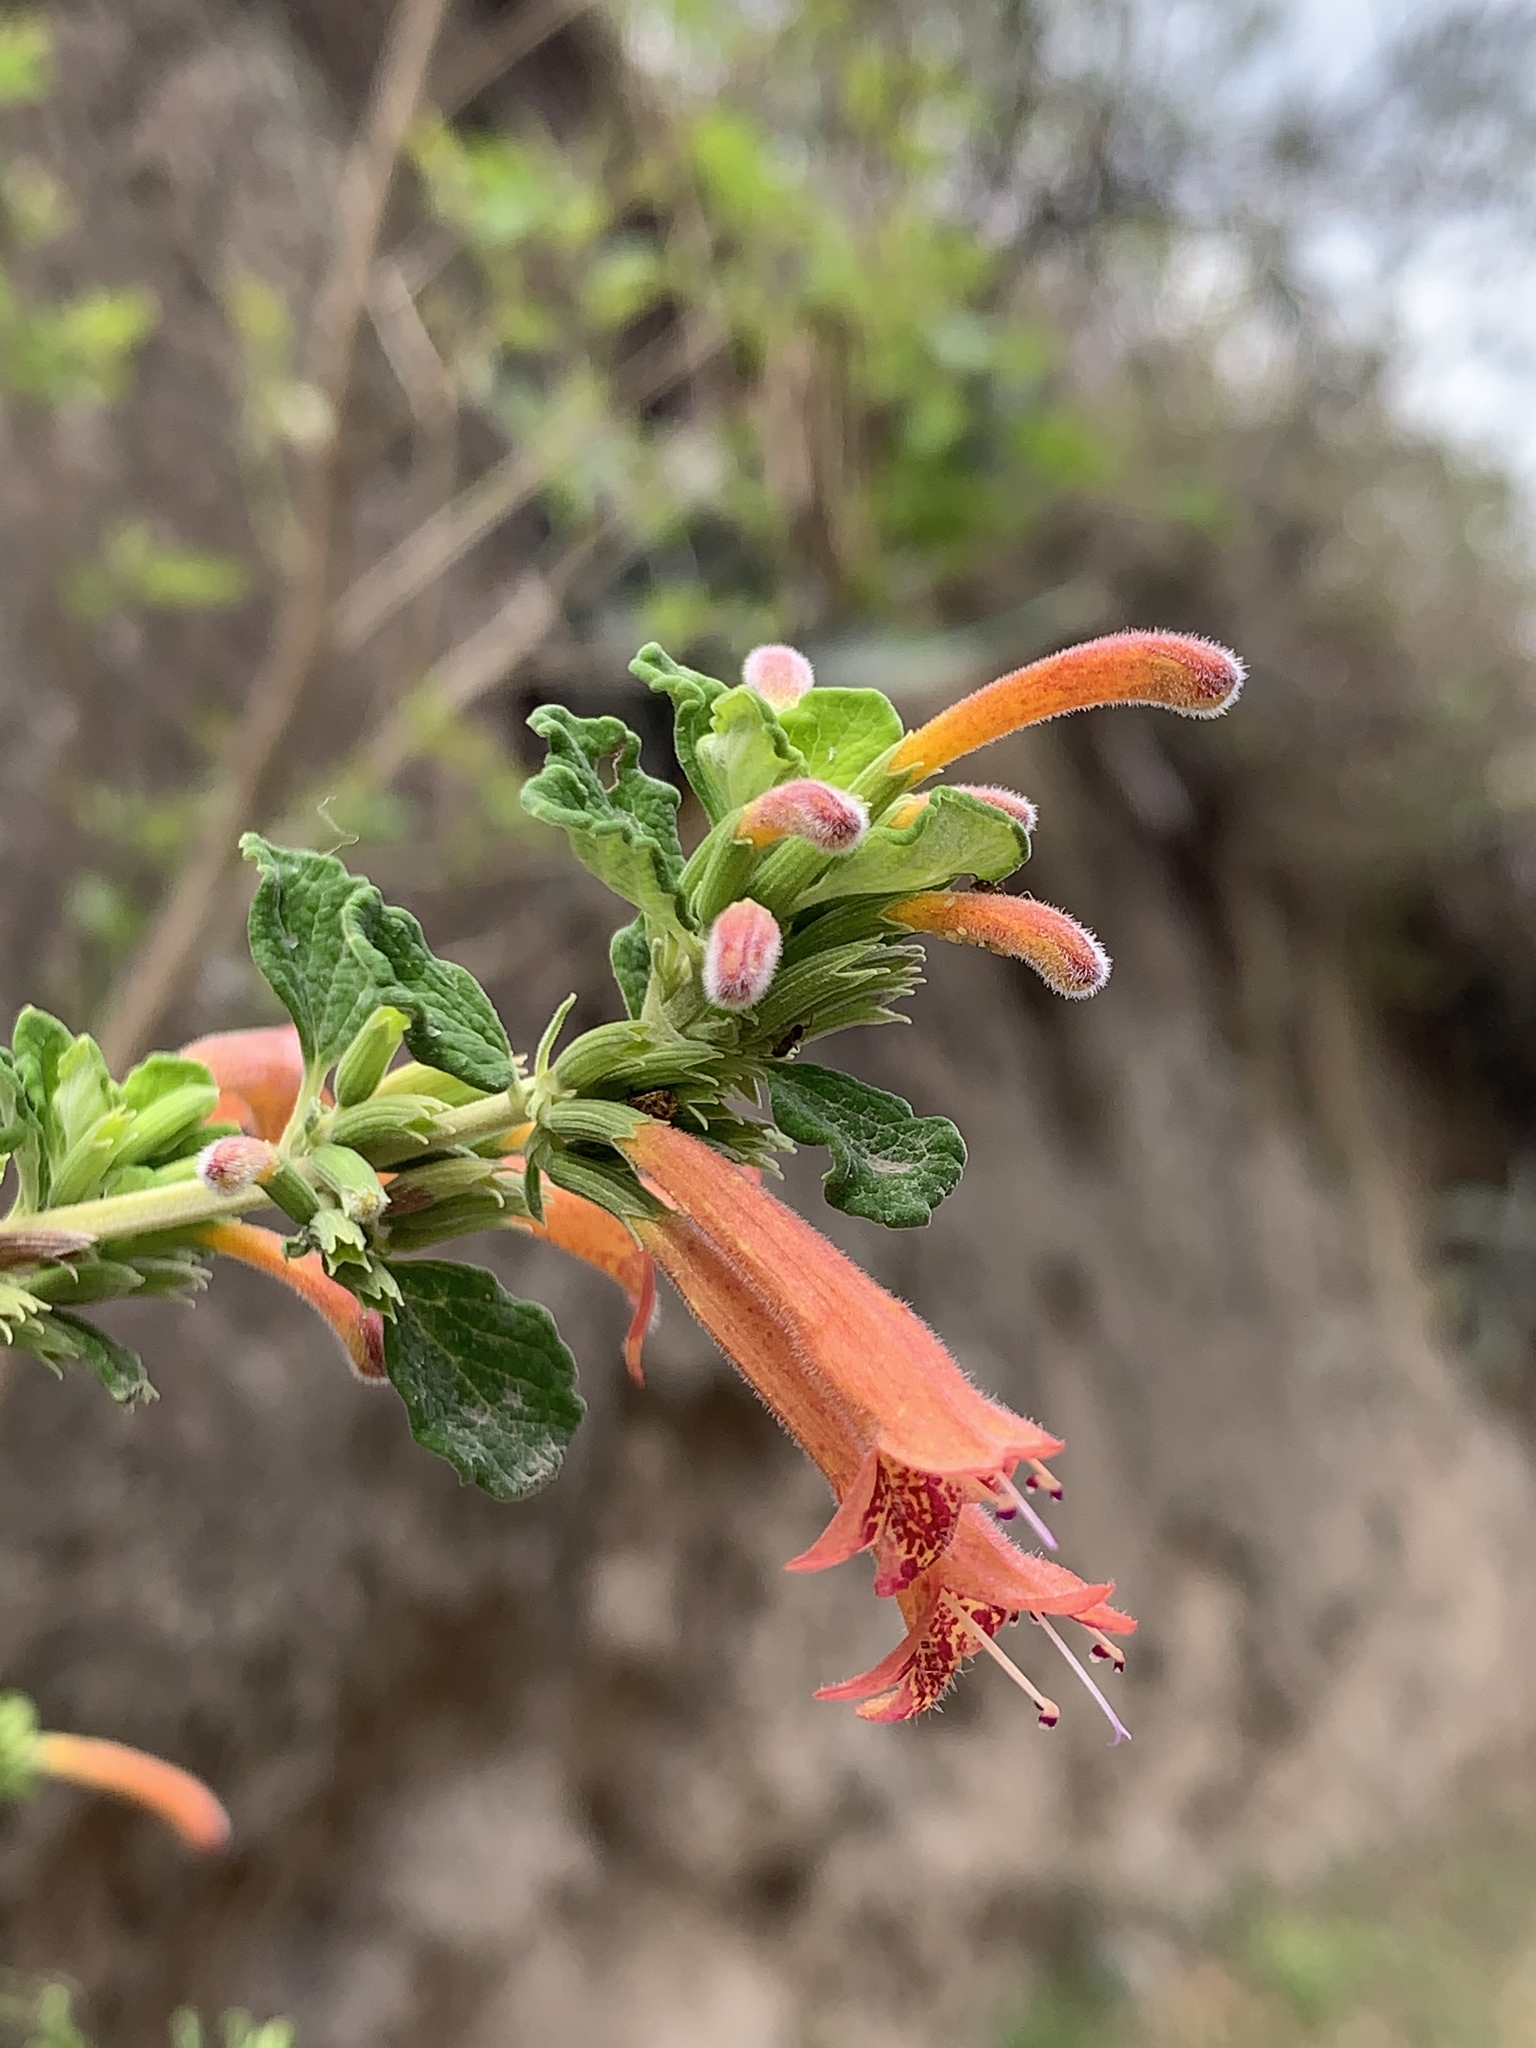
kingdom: Plantae
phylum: Tracheophyta
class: Magnoliopsida
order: Lamiales
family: Lamiaceae
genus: Clinopodium
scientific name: Clinopodium tomentosum
